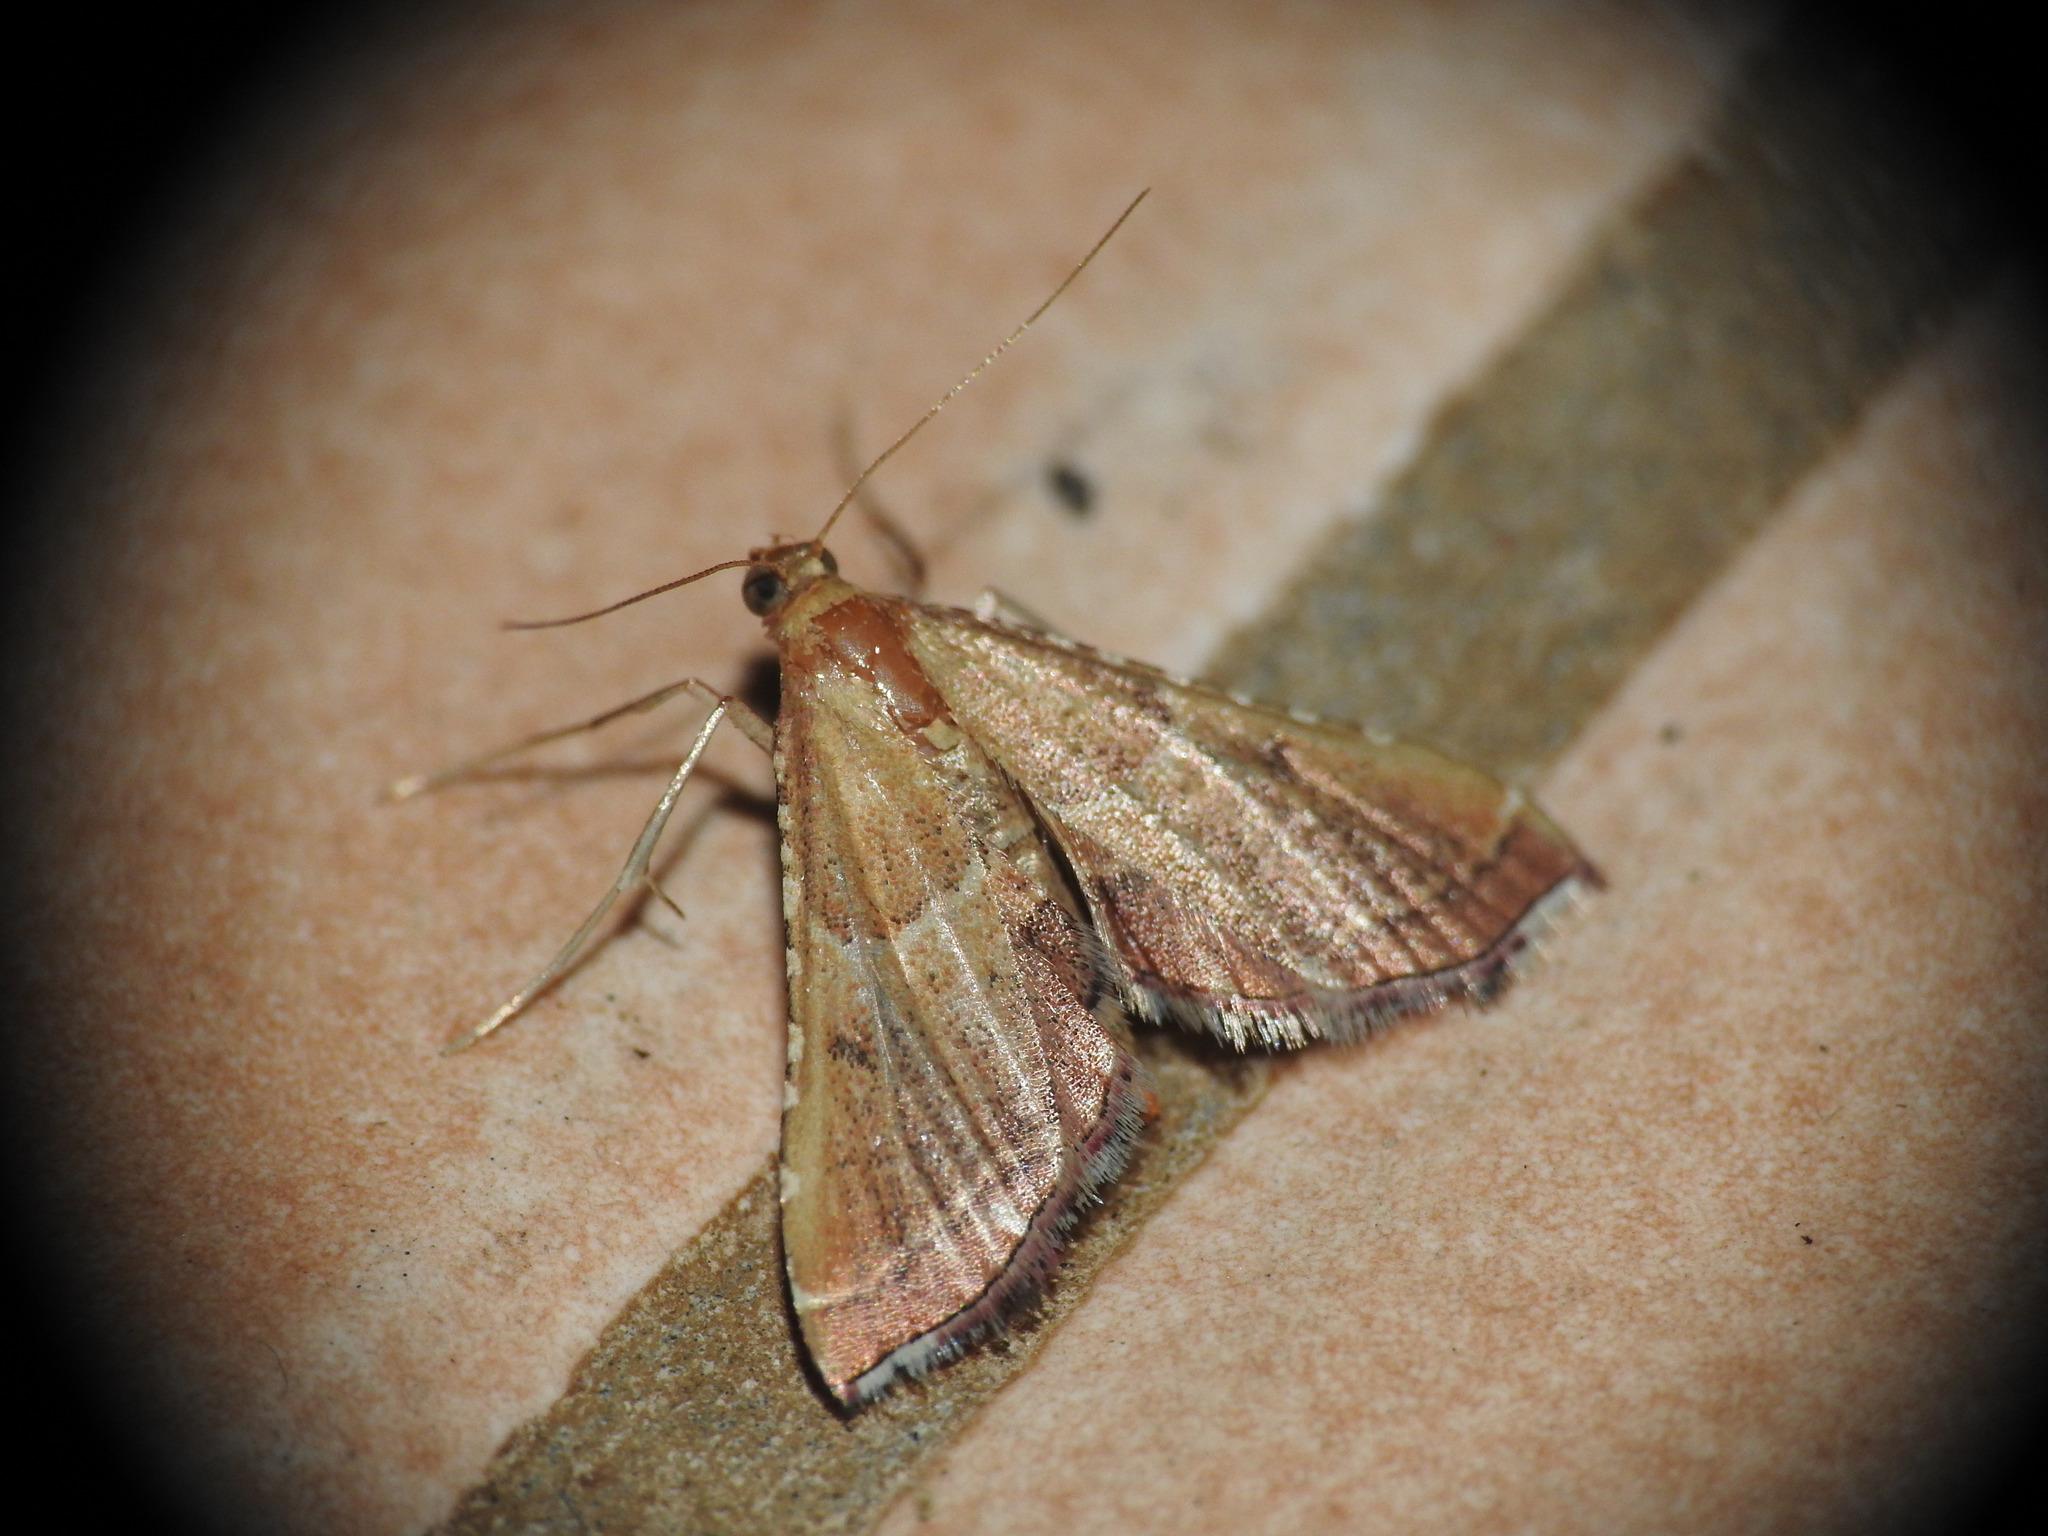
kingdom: Animalia
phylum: Arthropoda
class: Insecta
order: Lepidoptera
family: Pyralidae
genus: Endotricha
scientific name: Endotricha flammealis
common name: Rosy tabby
